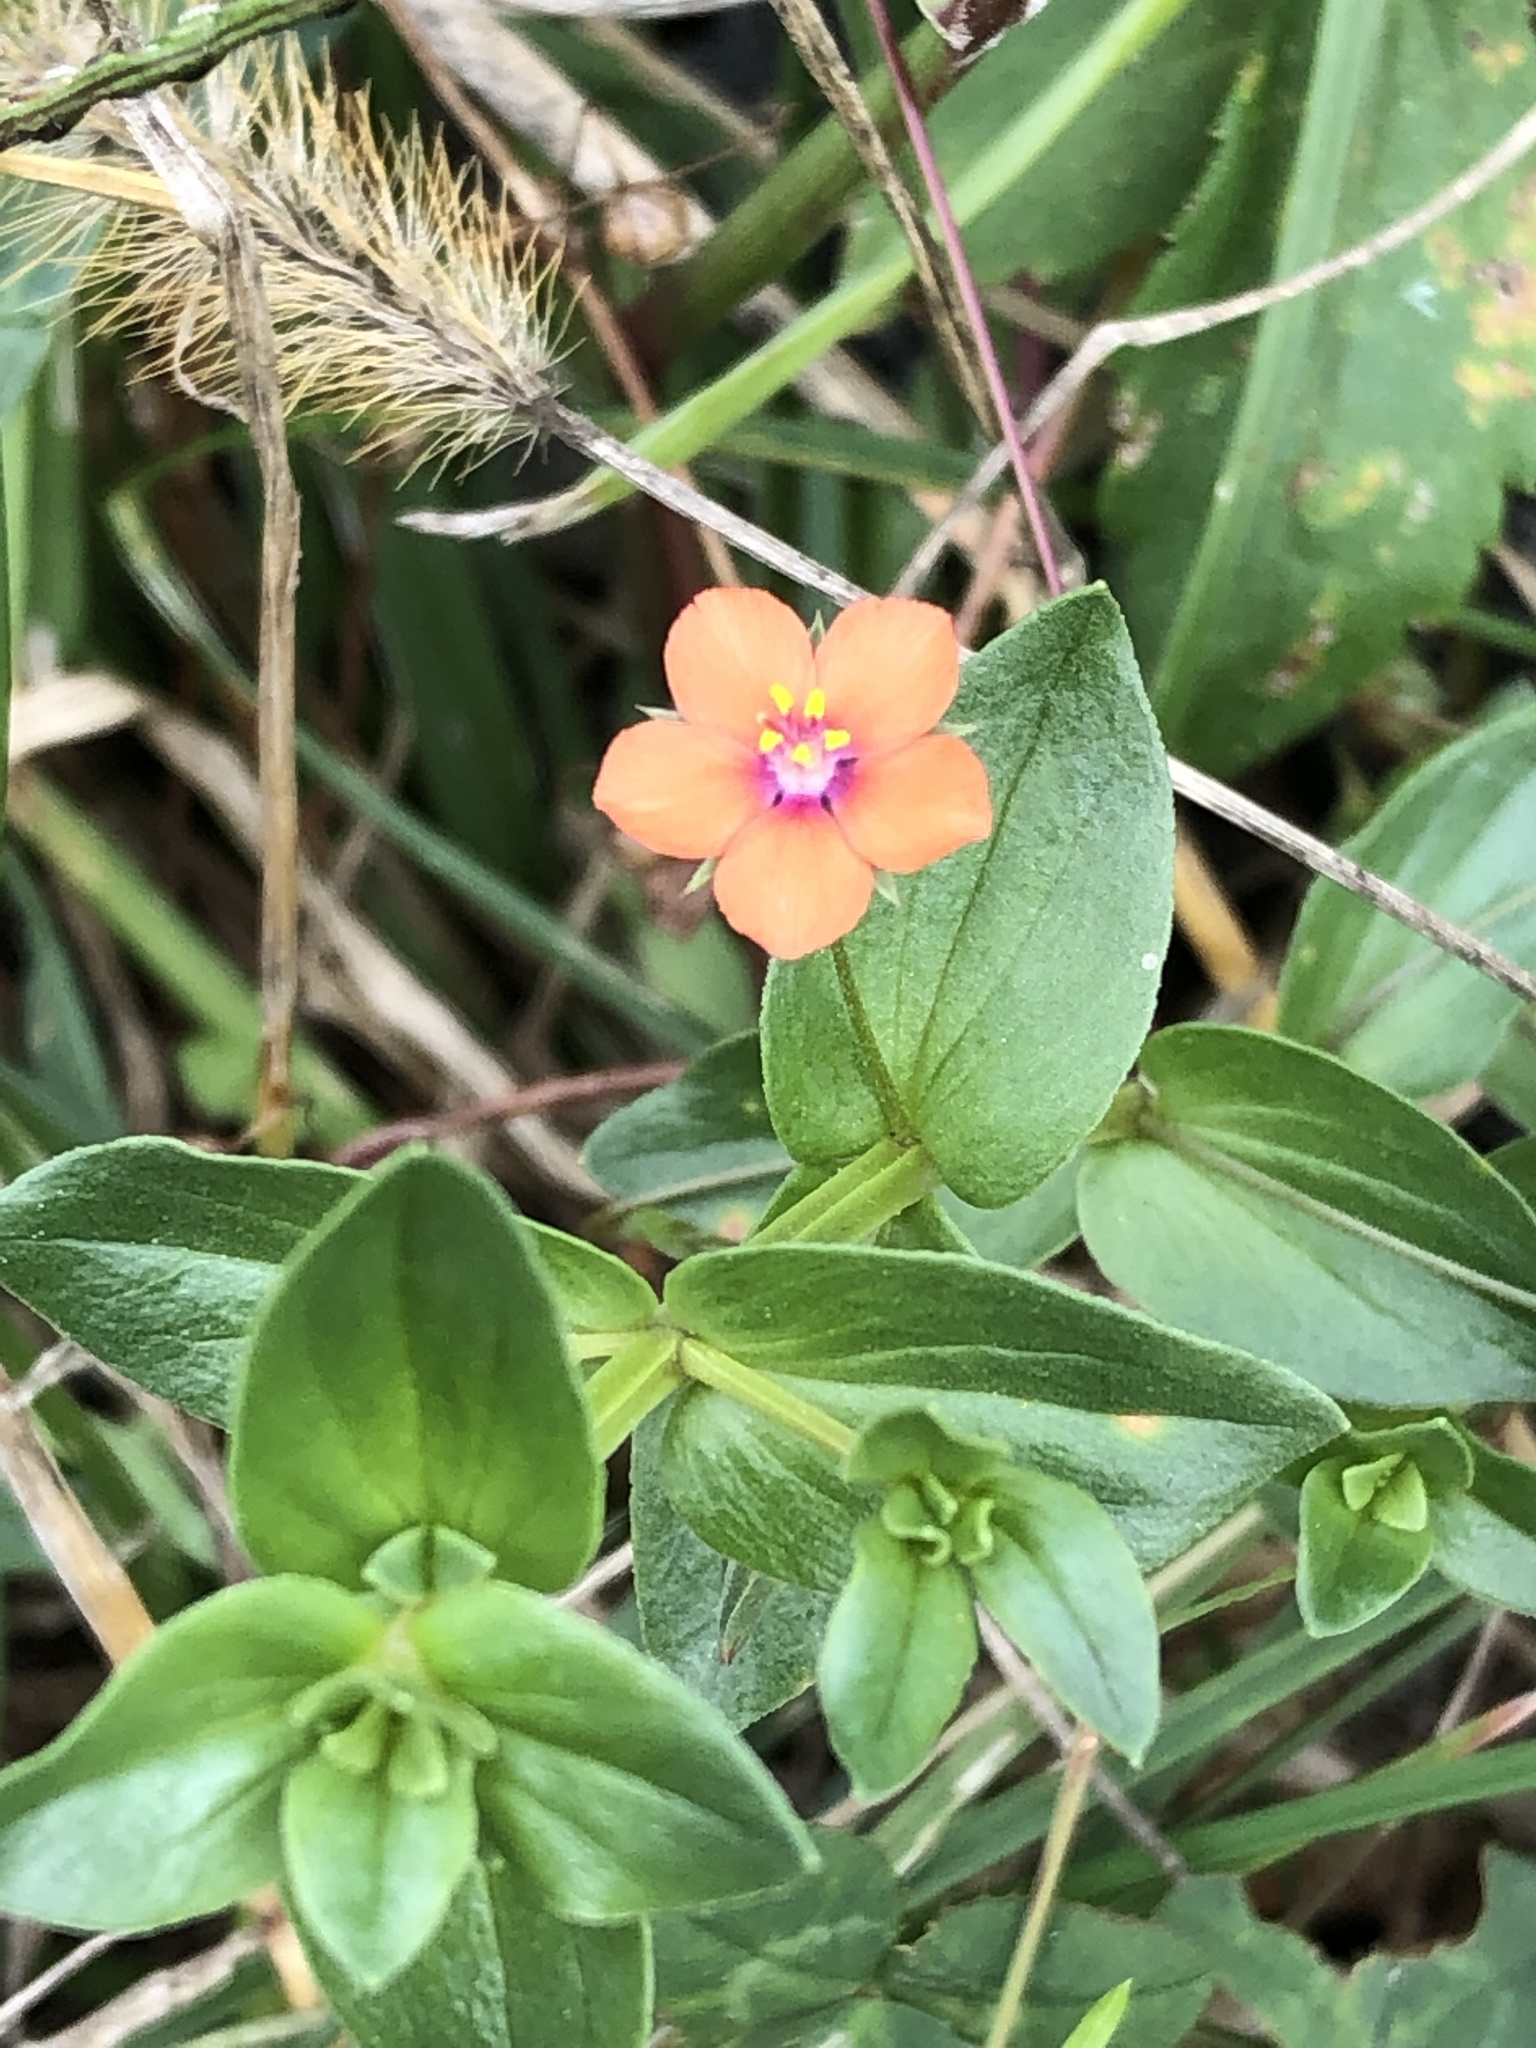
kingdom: Plantae
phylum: Tracheophyta
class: Magnoliopsida
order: Ericales
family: Primulaceae
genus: Lysimachia
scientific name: Lysimachia arvensis
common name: Scarlet pimpernel
